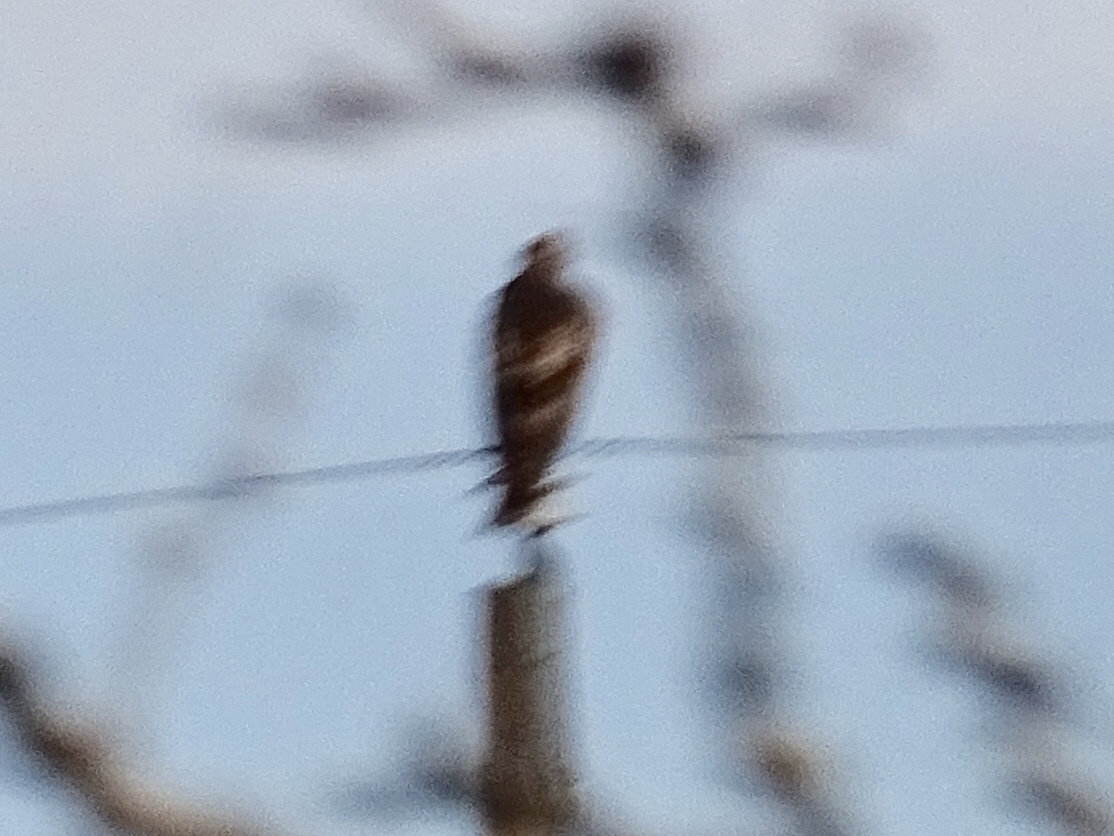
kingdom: Animalia
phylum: Chordata
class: Aves
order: Accipitriformes
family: Accipitridae
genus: Buteo
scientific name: Buteo jamaicensis
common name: Red-tailed hawk
